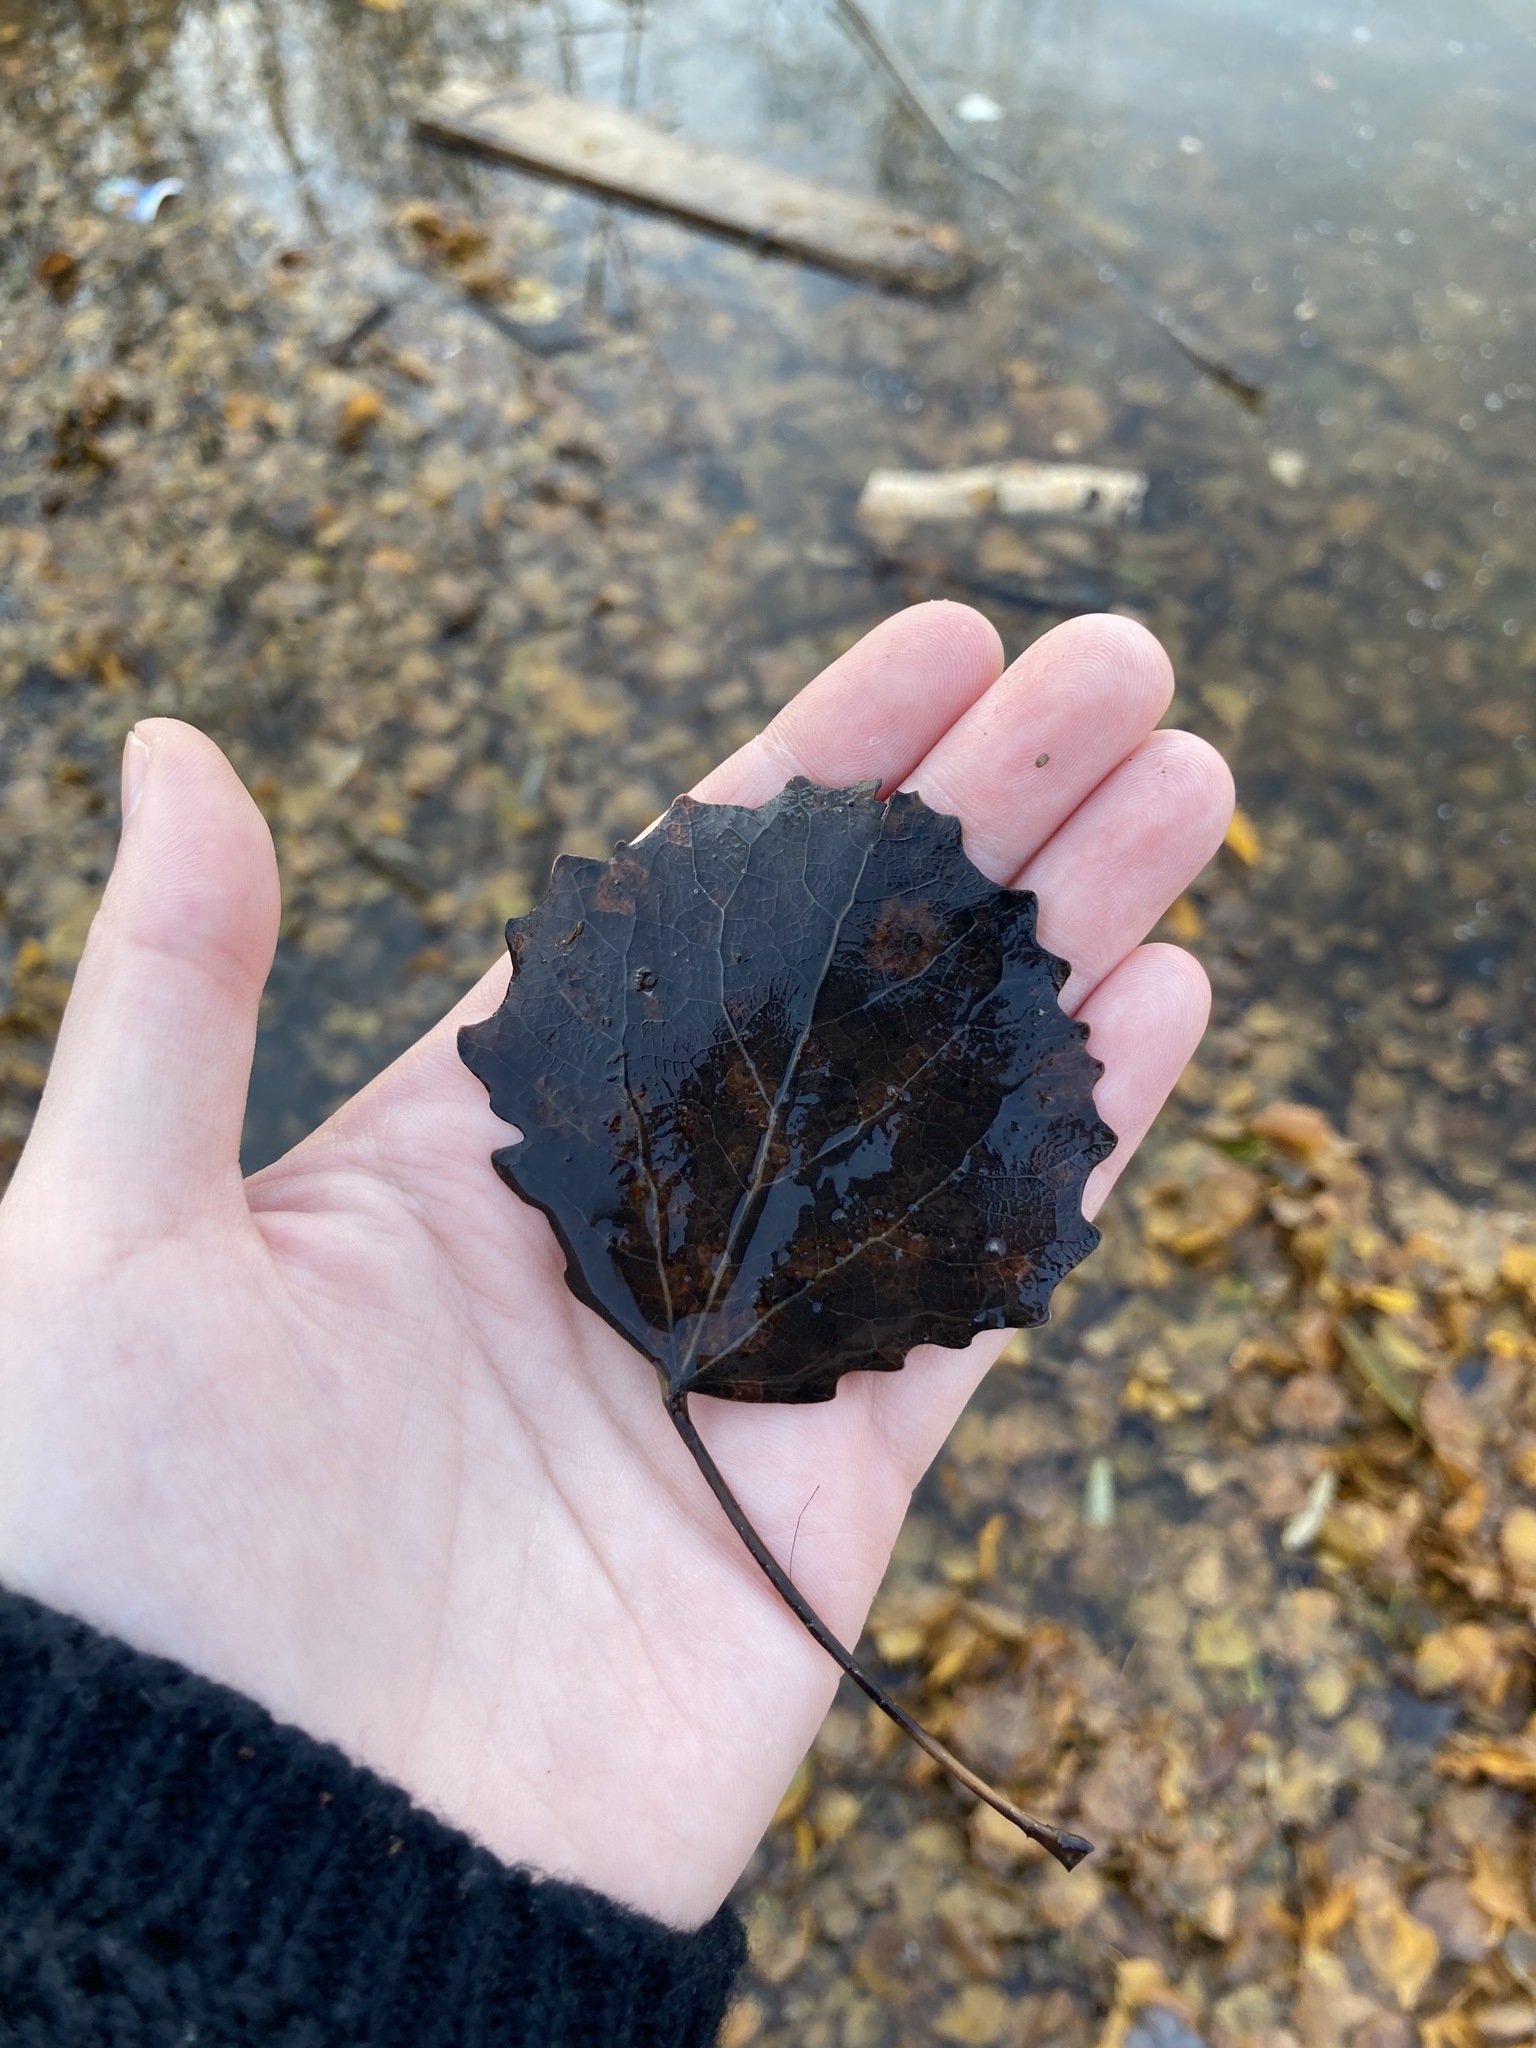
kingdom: Plantae
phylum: Tracheophyta
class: Magnoliopsida
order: Malpighiales
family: Salicaceae
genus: Populus
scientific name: Populus tremula
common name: European aspen
